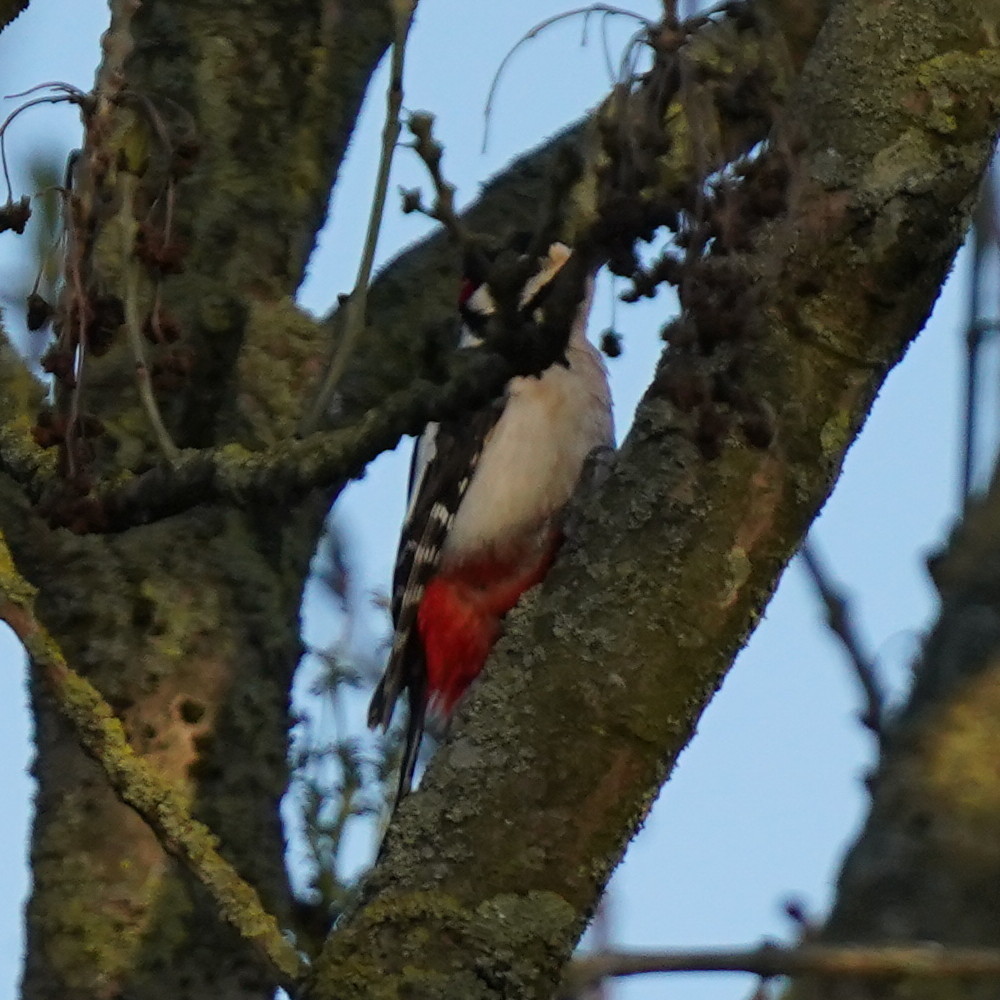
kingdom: Animalia
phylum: Chordata
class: Aves
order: Piciformes
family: Picidae
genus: Dendrocopos
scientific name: Dendrocopos major
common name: Great spotted woodpecker
